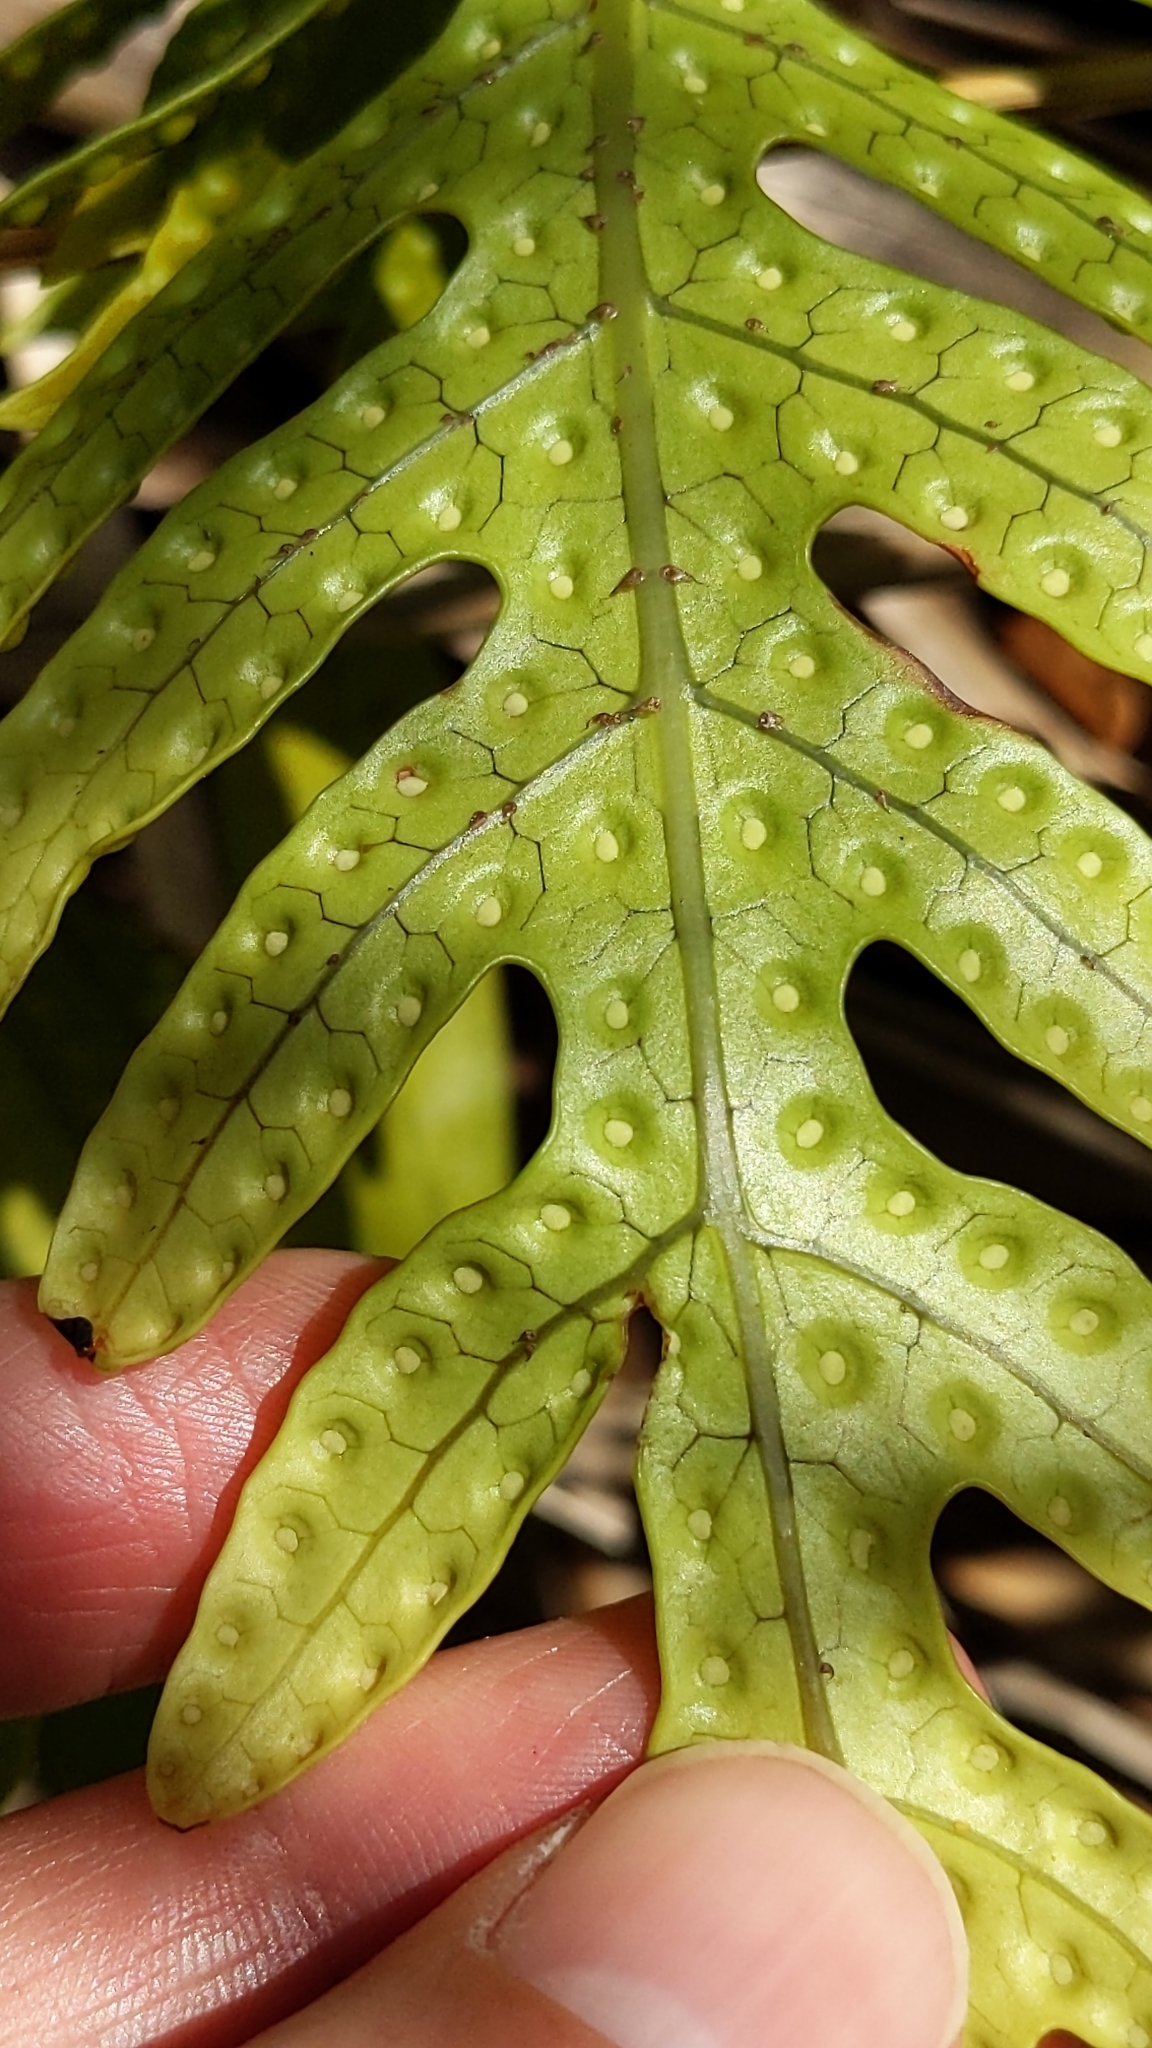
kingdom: Plantae
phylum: Tracheophyta
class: Polypodiopsida
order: Polypodiales
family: Polypodiaceae
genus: Lecanopteris
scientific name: Lecanopteris pustulata
